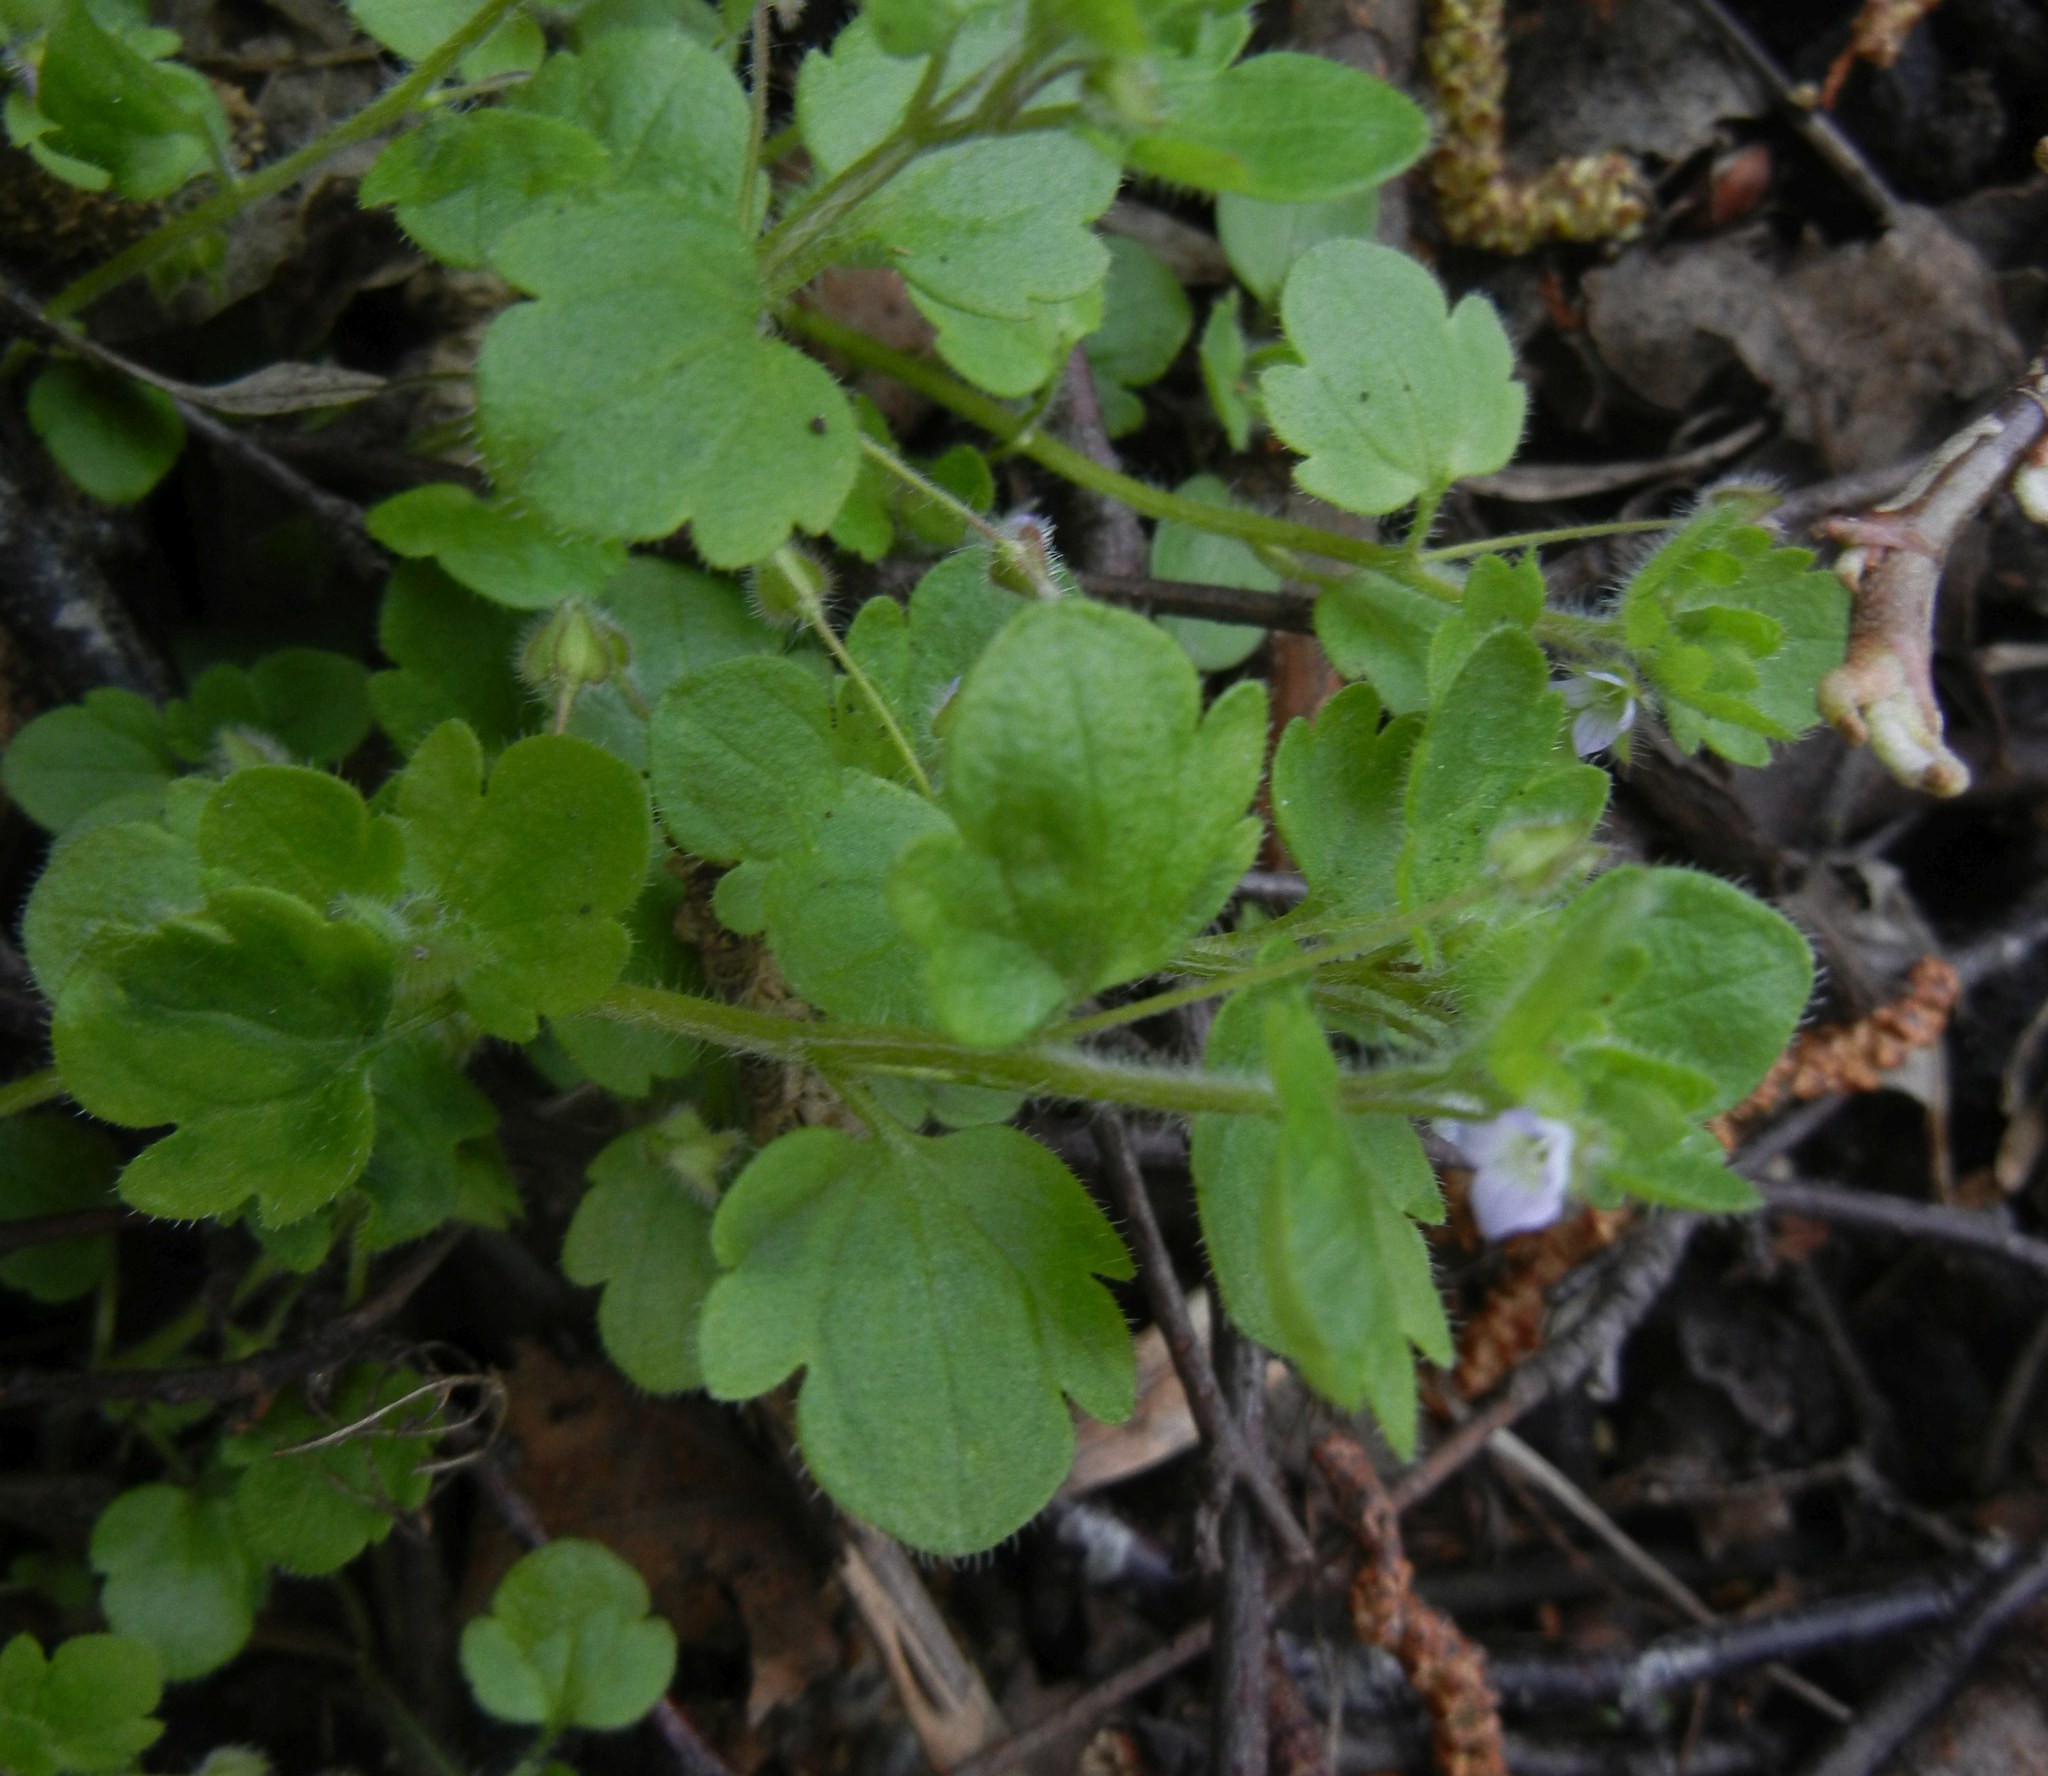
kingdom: Plantae
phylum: Tracheophyta
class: Magnoliopsida
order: Lamiales
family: Plantaginaceae
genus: Veronica
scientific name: Veronica sublobata
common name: False ivy-leaved speedwell
